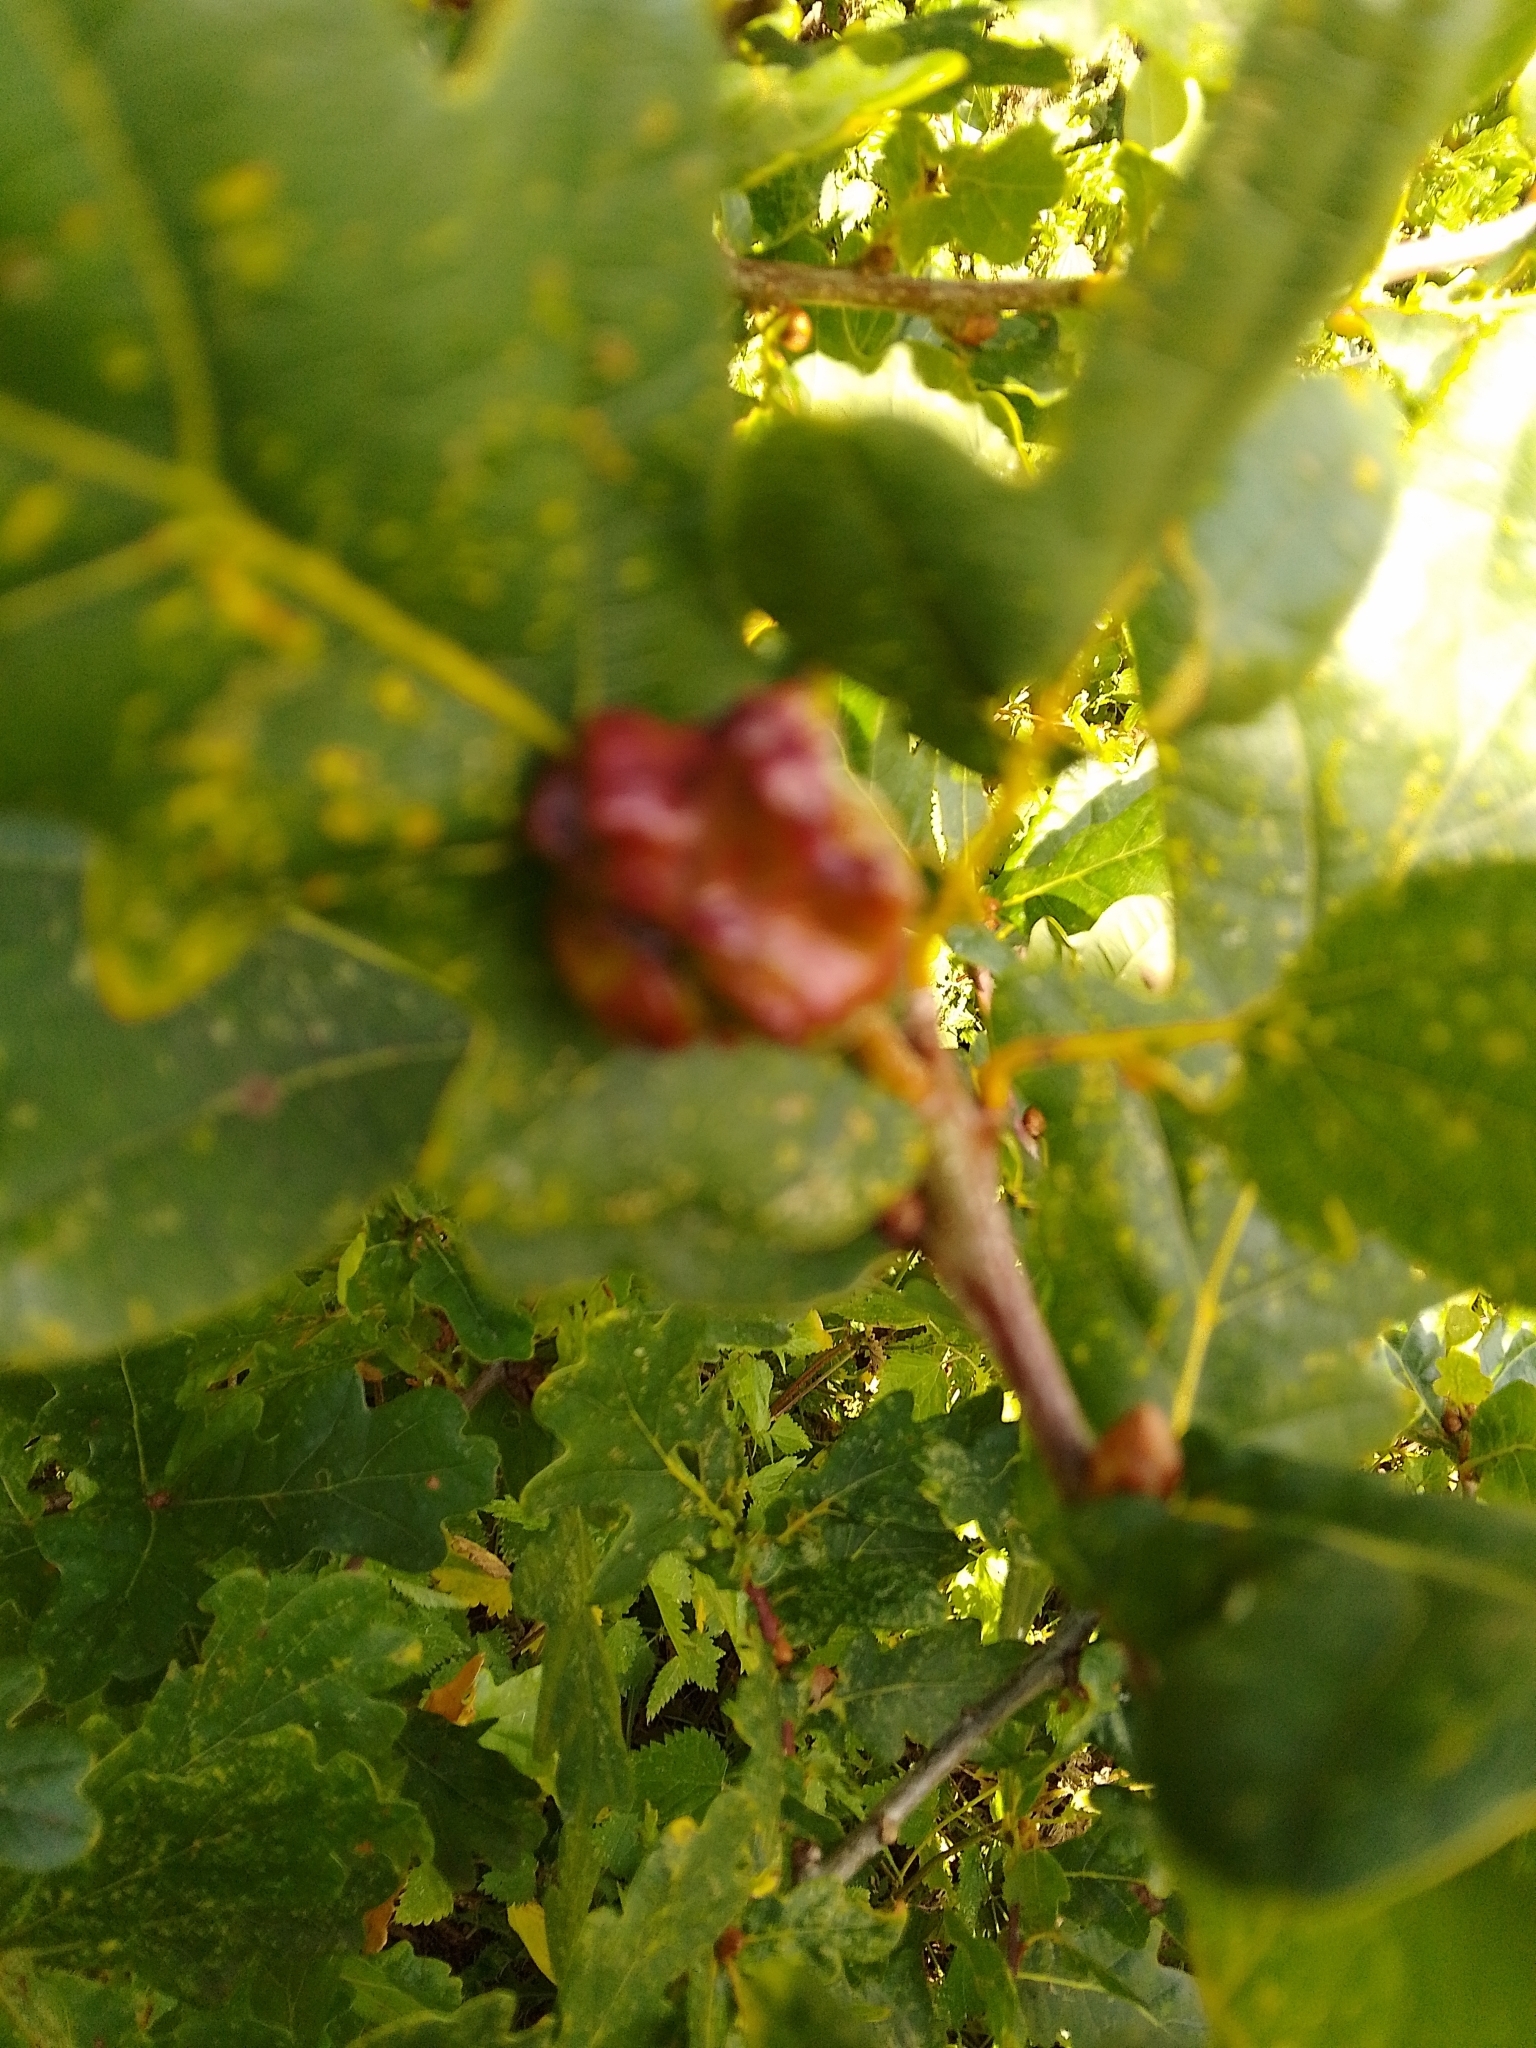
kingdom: Animalia
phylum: Arthropoda
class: Insecta
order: Hymenoptera
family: Cynipidae
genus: Andricus
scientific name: Andricus quercuscalicis
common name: Knopper gall
